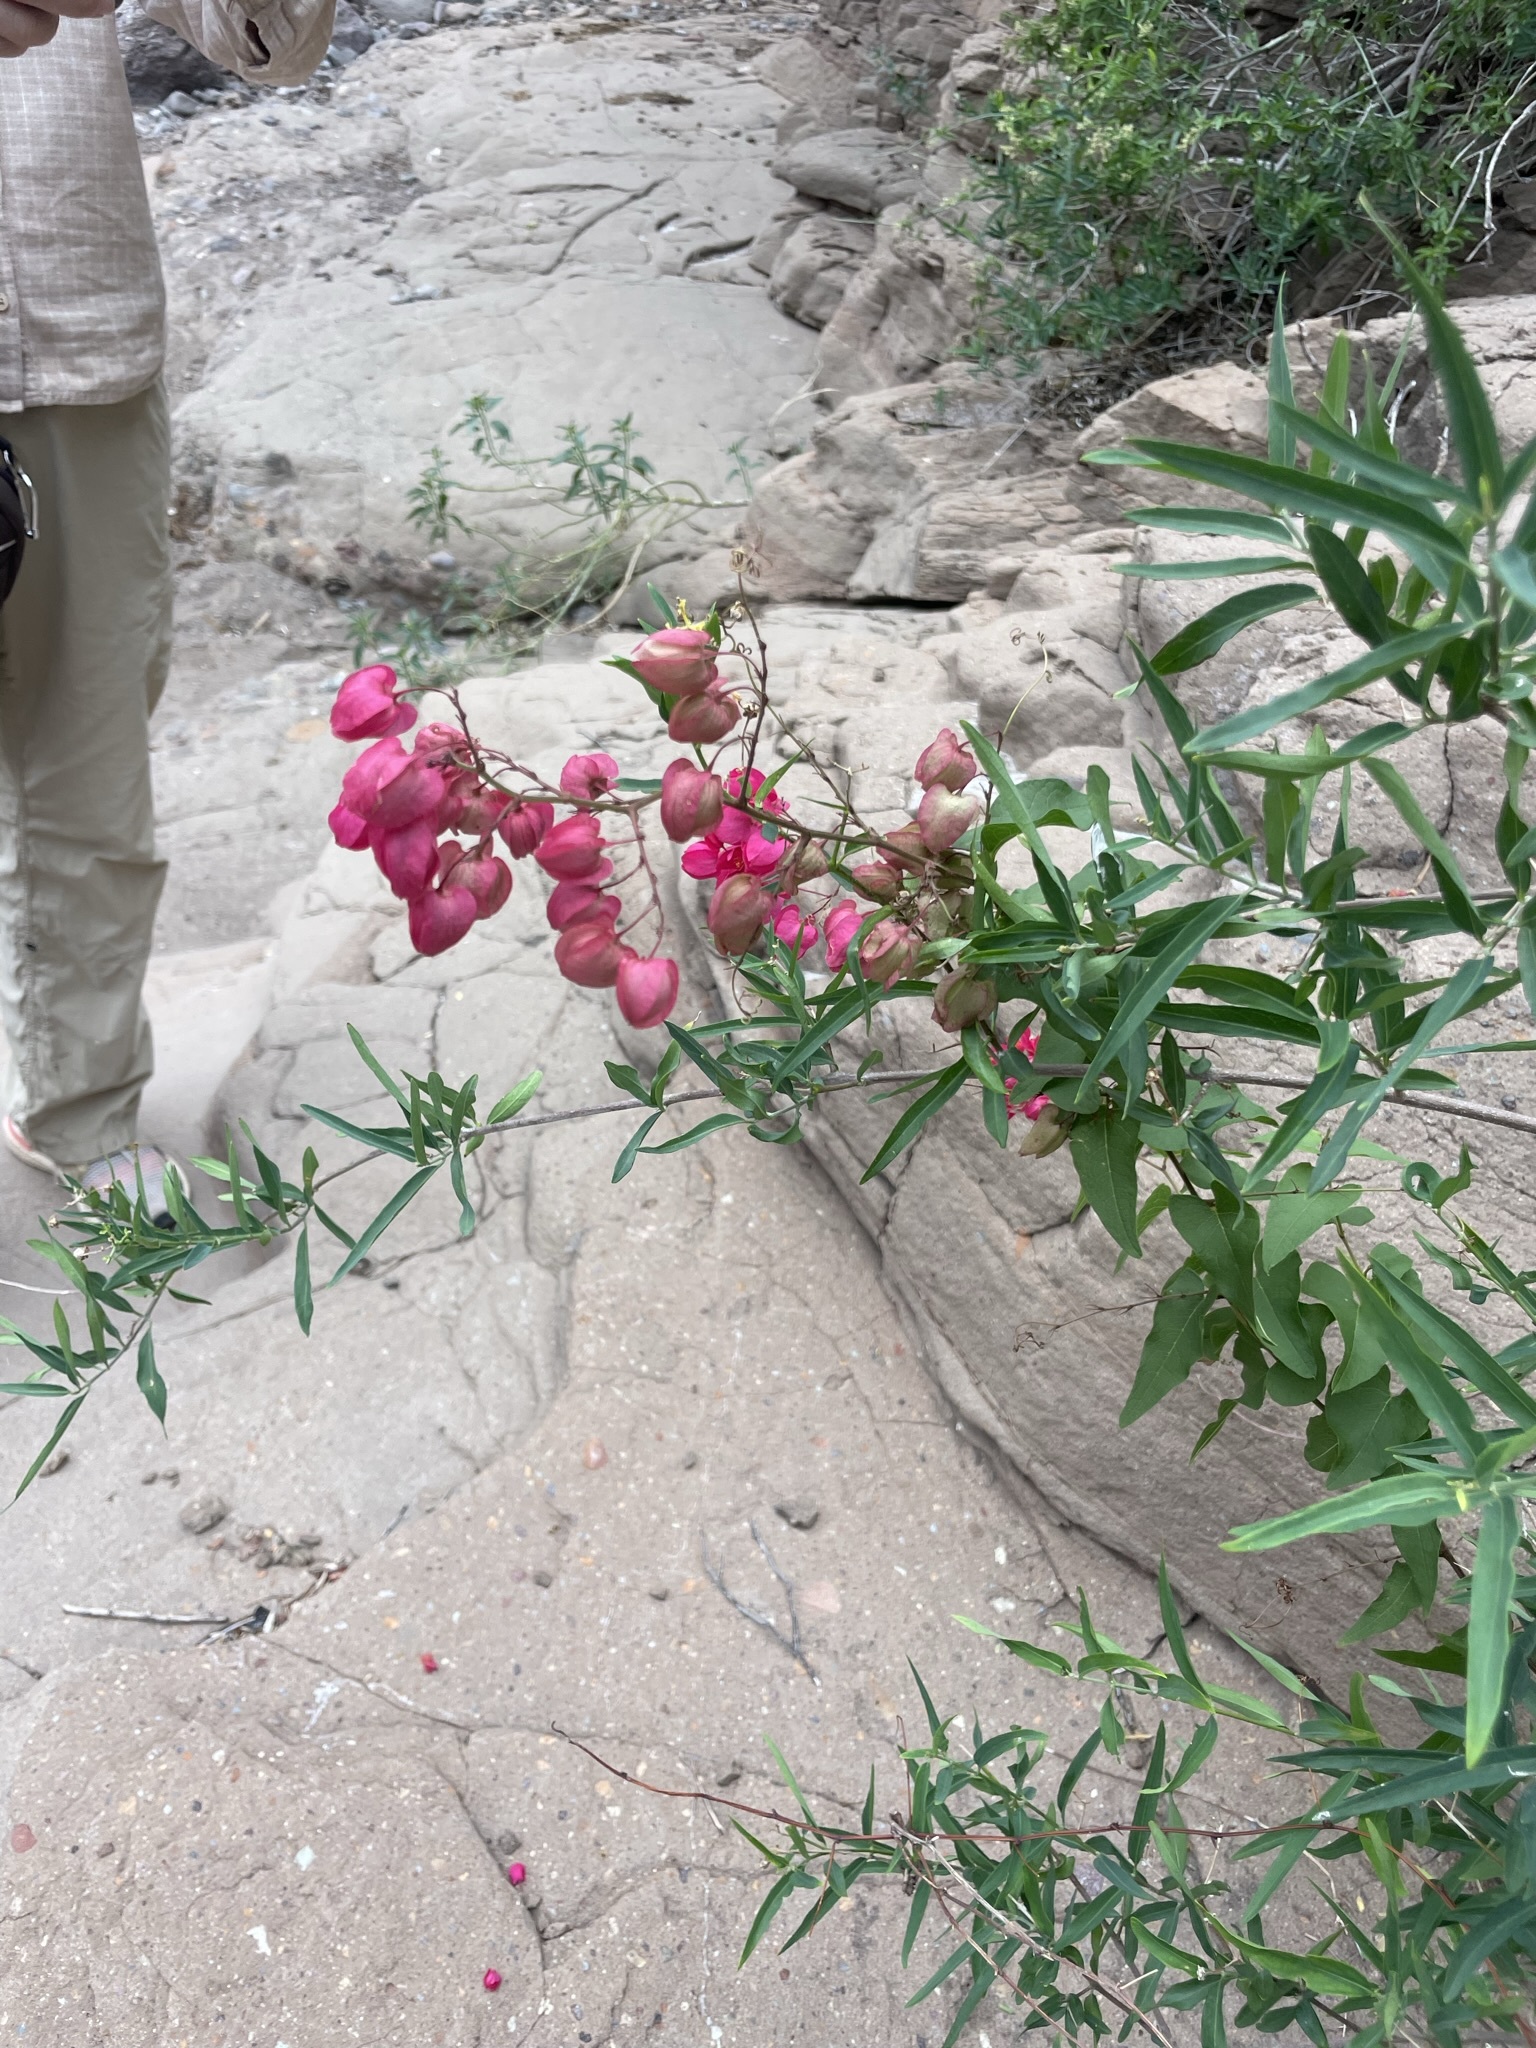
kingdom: Plantae
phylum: Tracheophyta
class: Magnoliopsida
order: Caryophyllales
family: Polygonaceae
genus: Antigonon
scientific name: Antigonon leptopus
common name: Coral vine
